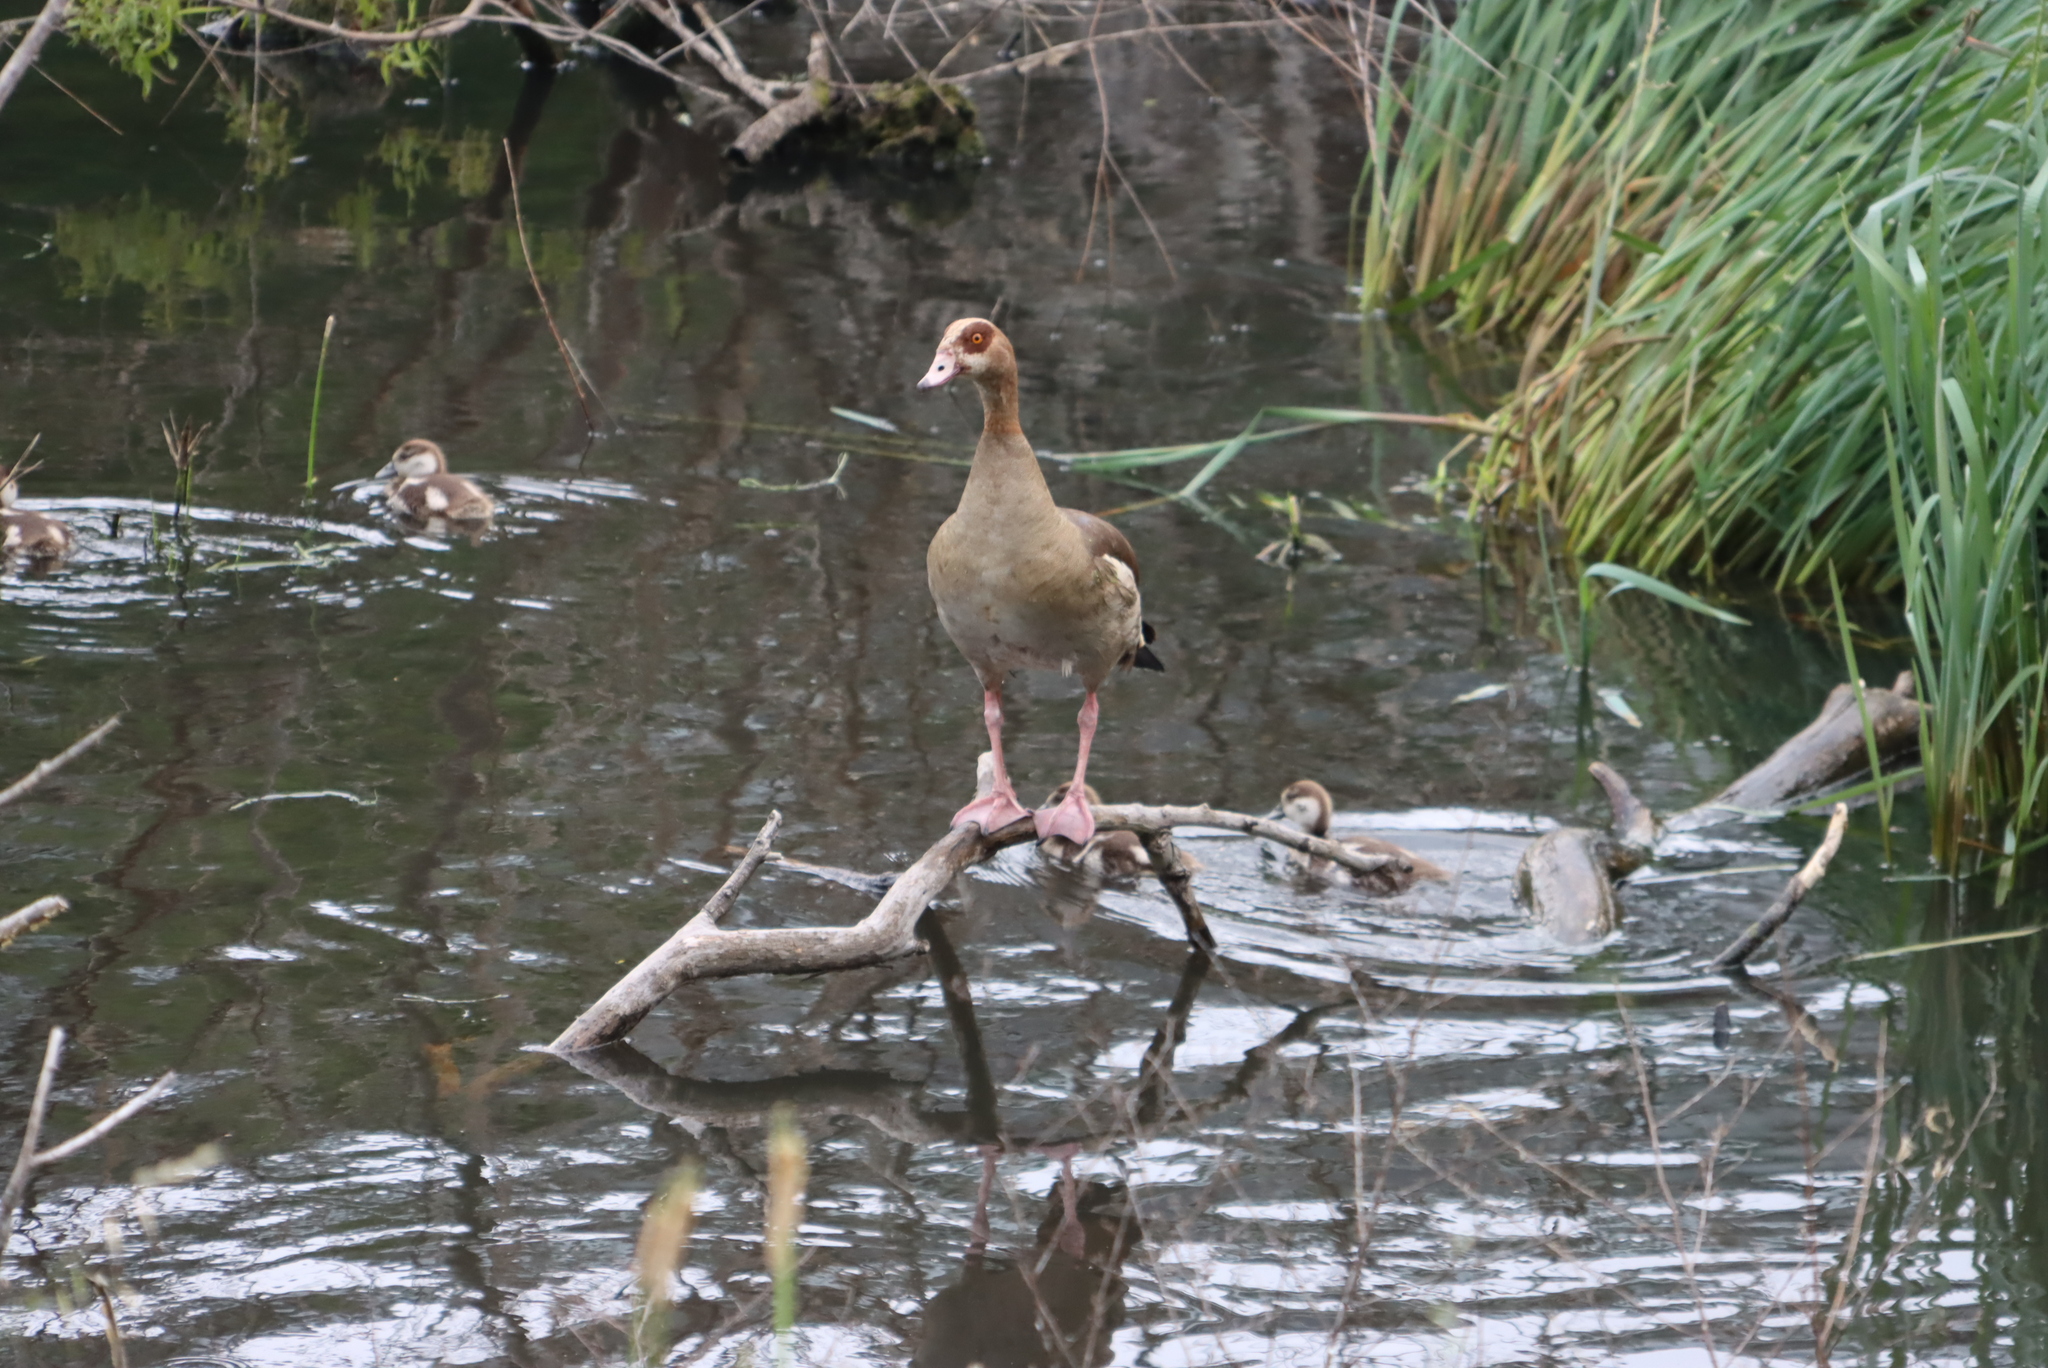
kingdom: Animalia
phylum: Chordata
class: Aves
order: Anseriformes
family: Anatidae
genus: Alopochen
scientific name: Alopochen aegyptiaca
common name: Egyptian goose
